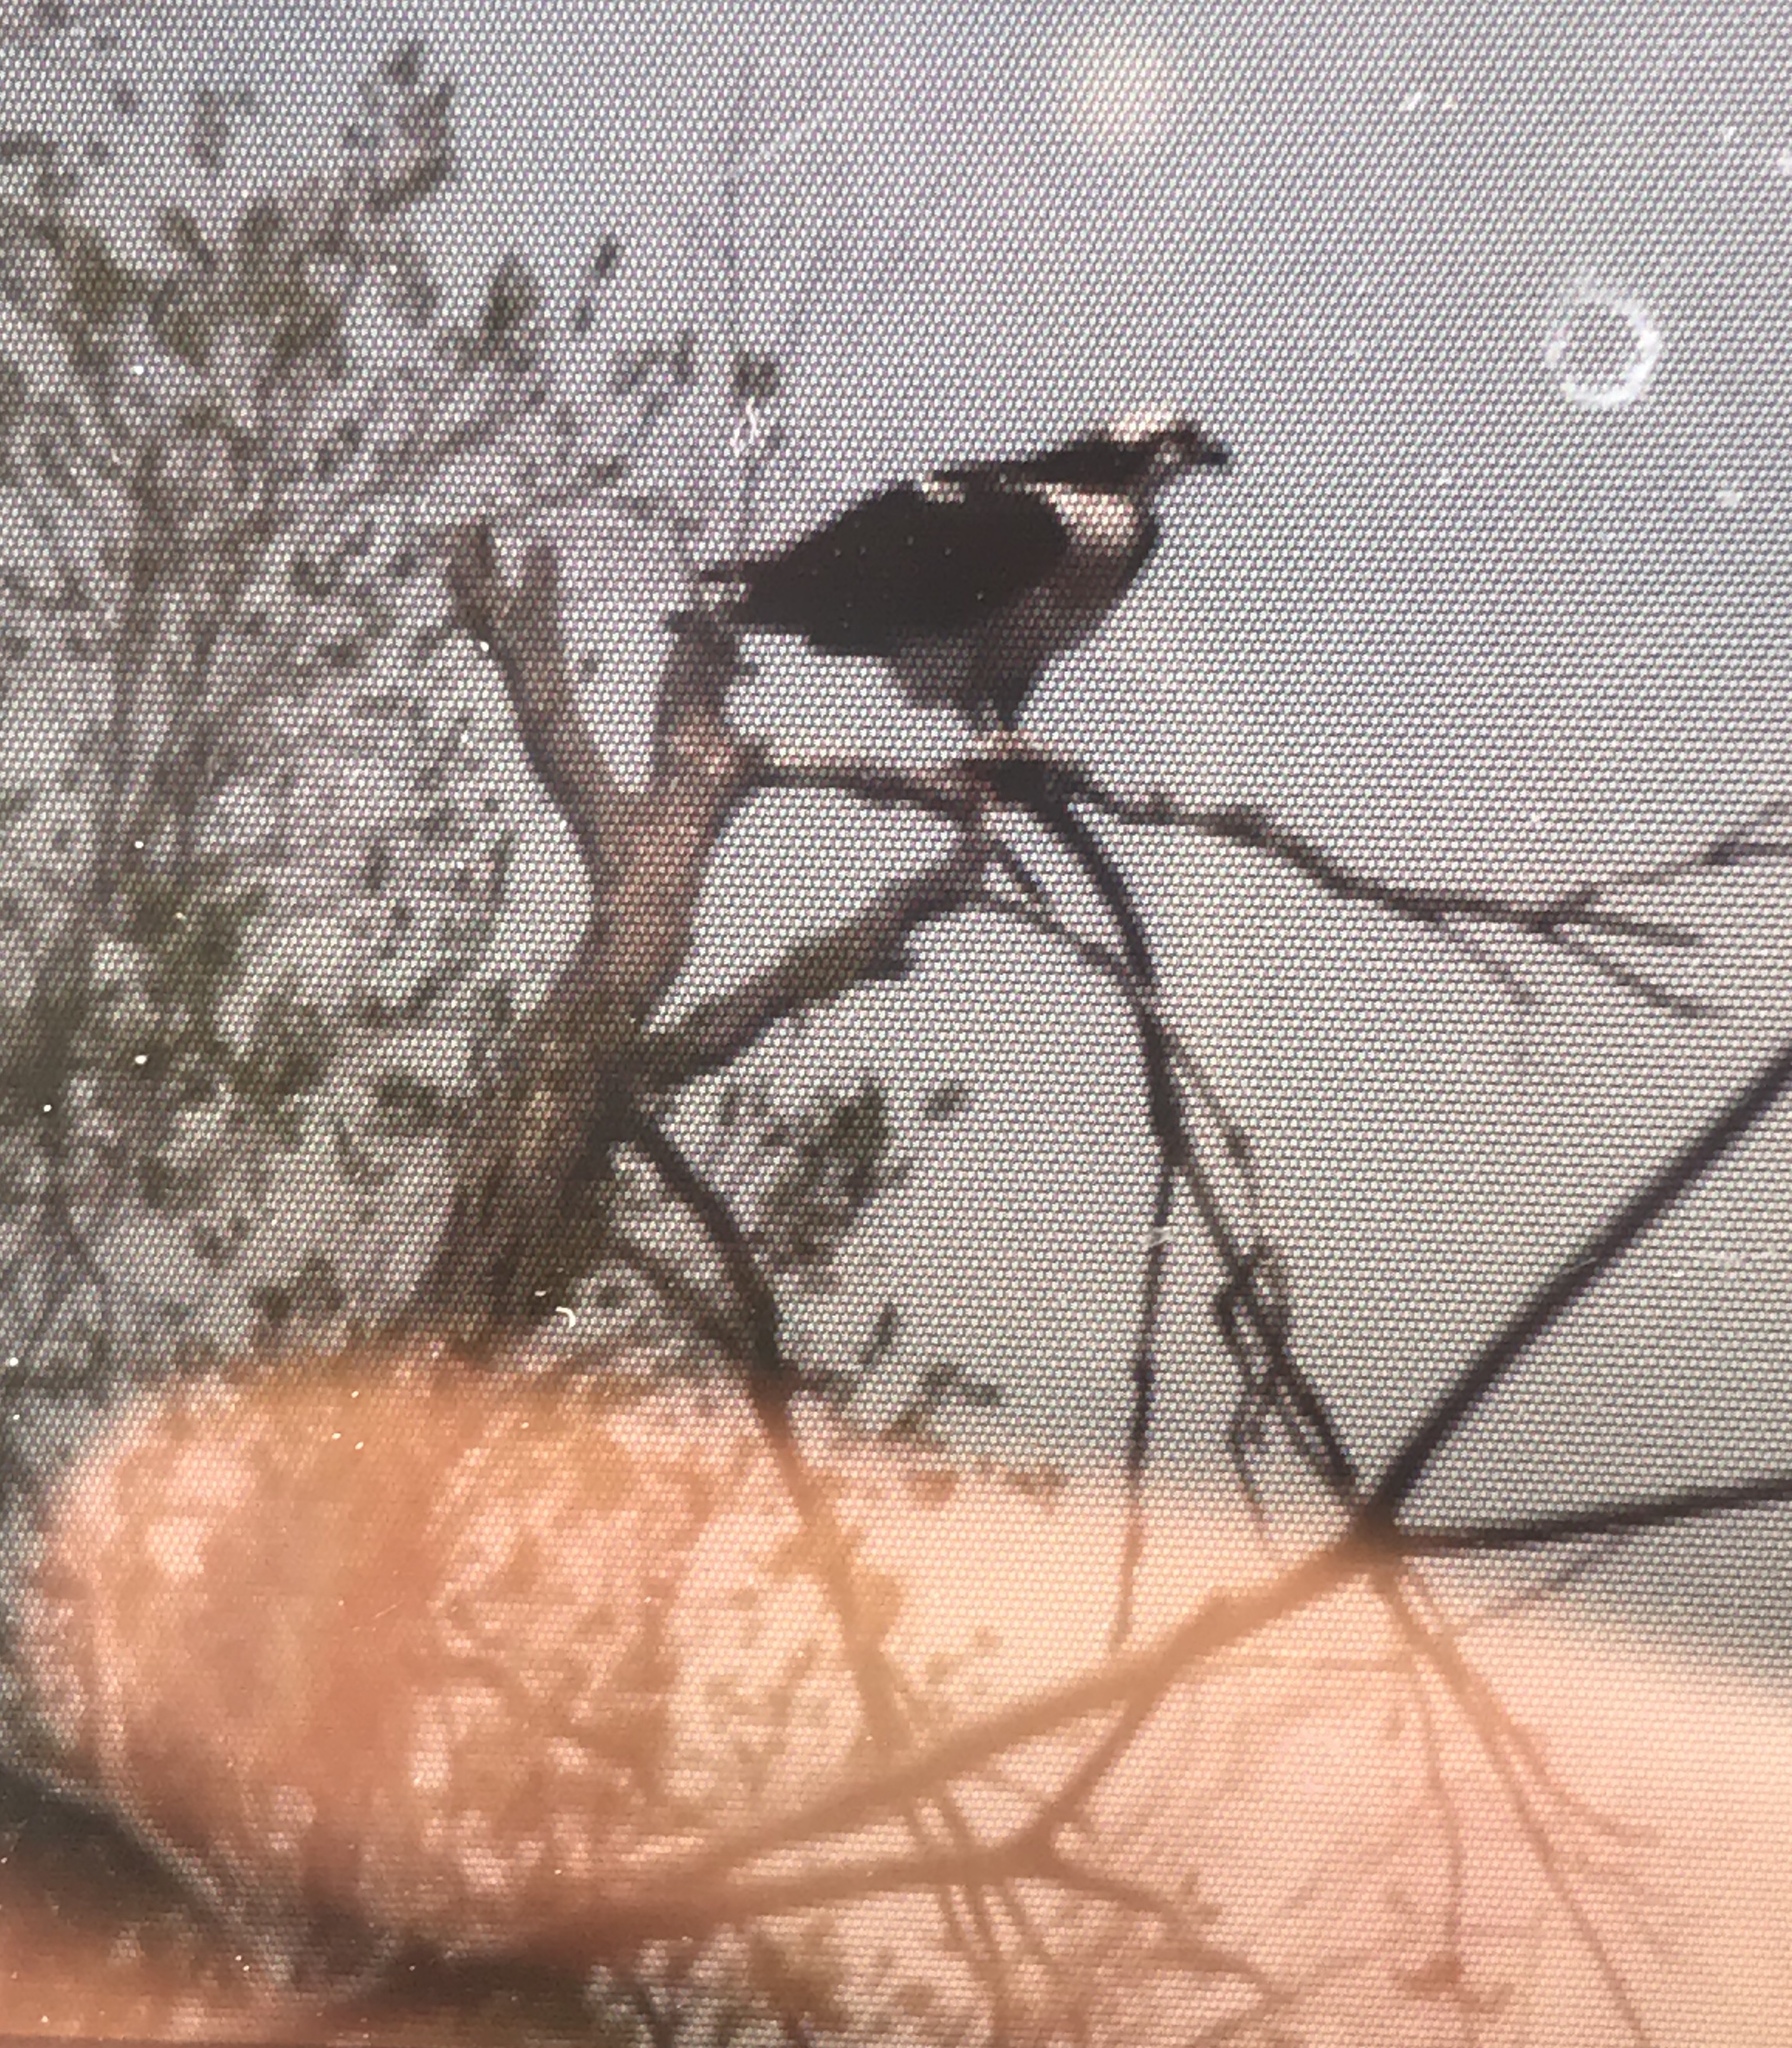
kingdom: Animalia
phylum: Chordata
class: Aves
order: Accipitriformes
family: Pandionidae
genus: Pandion
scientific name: Pandion haliaetus
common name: Osprey
